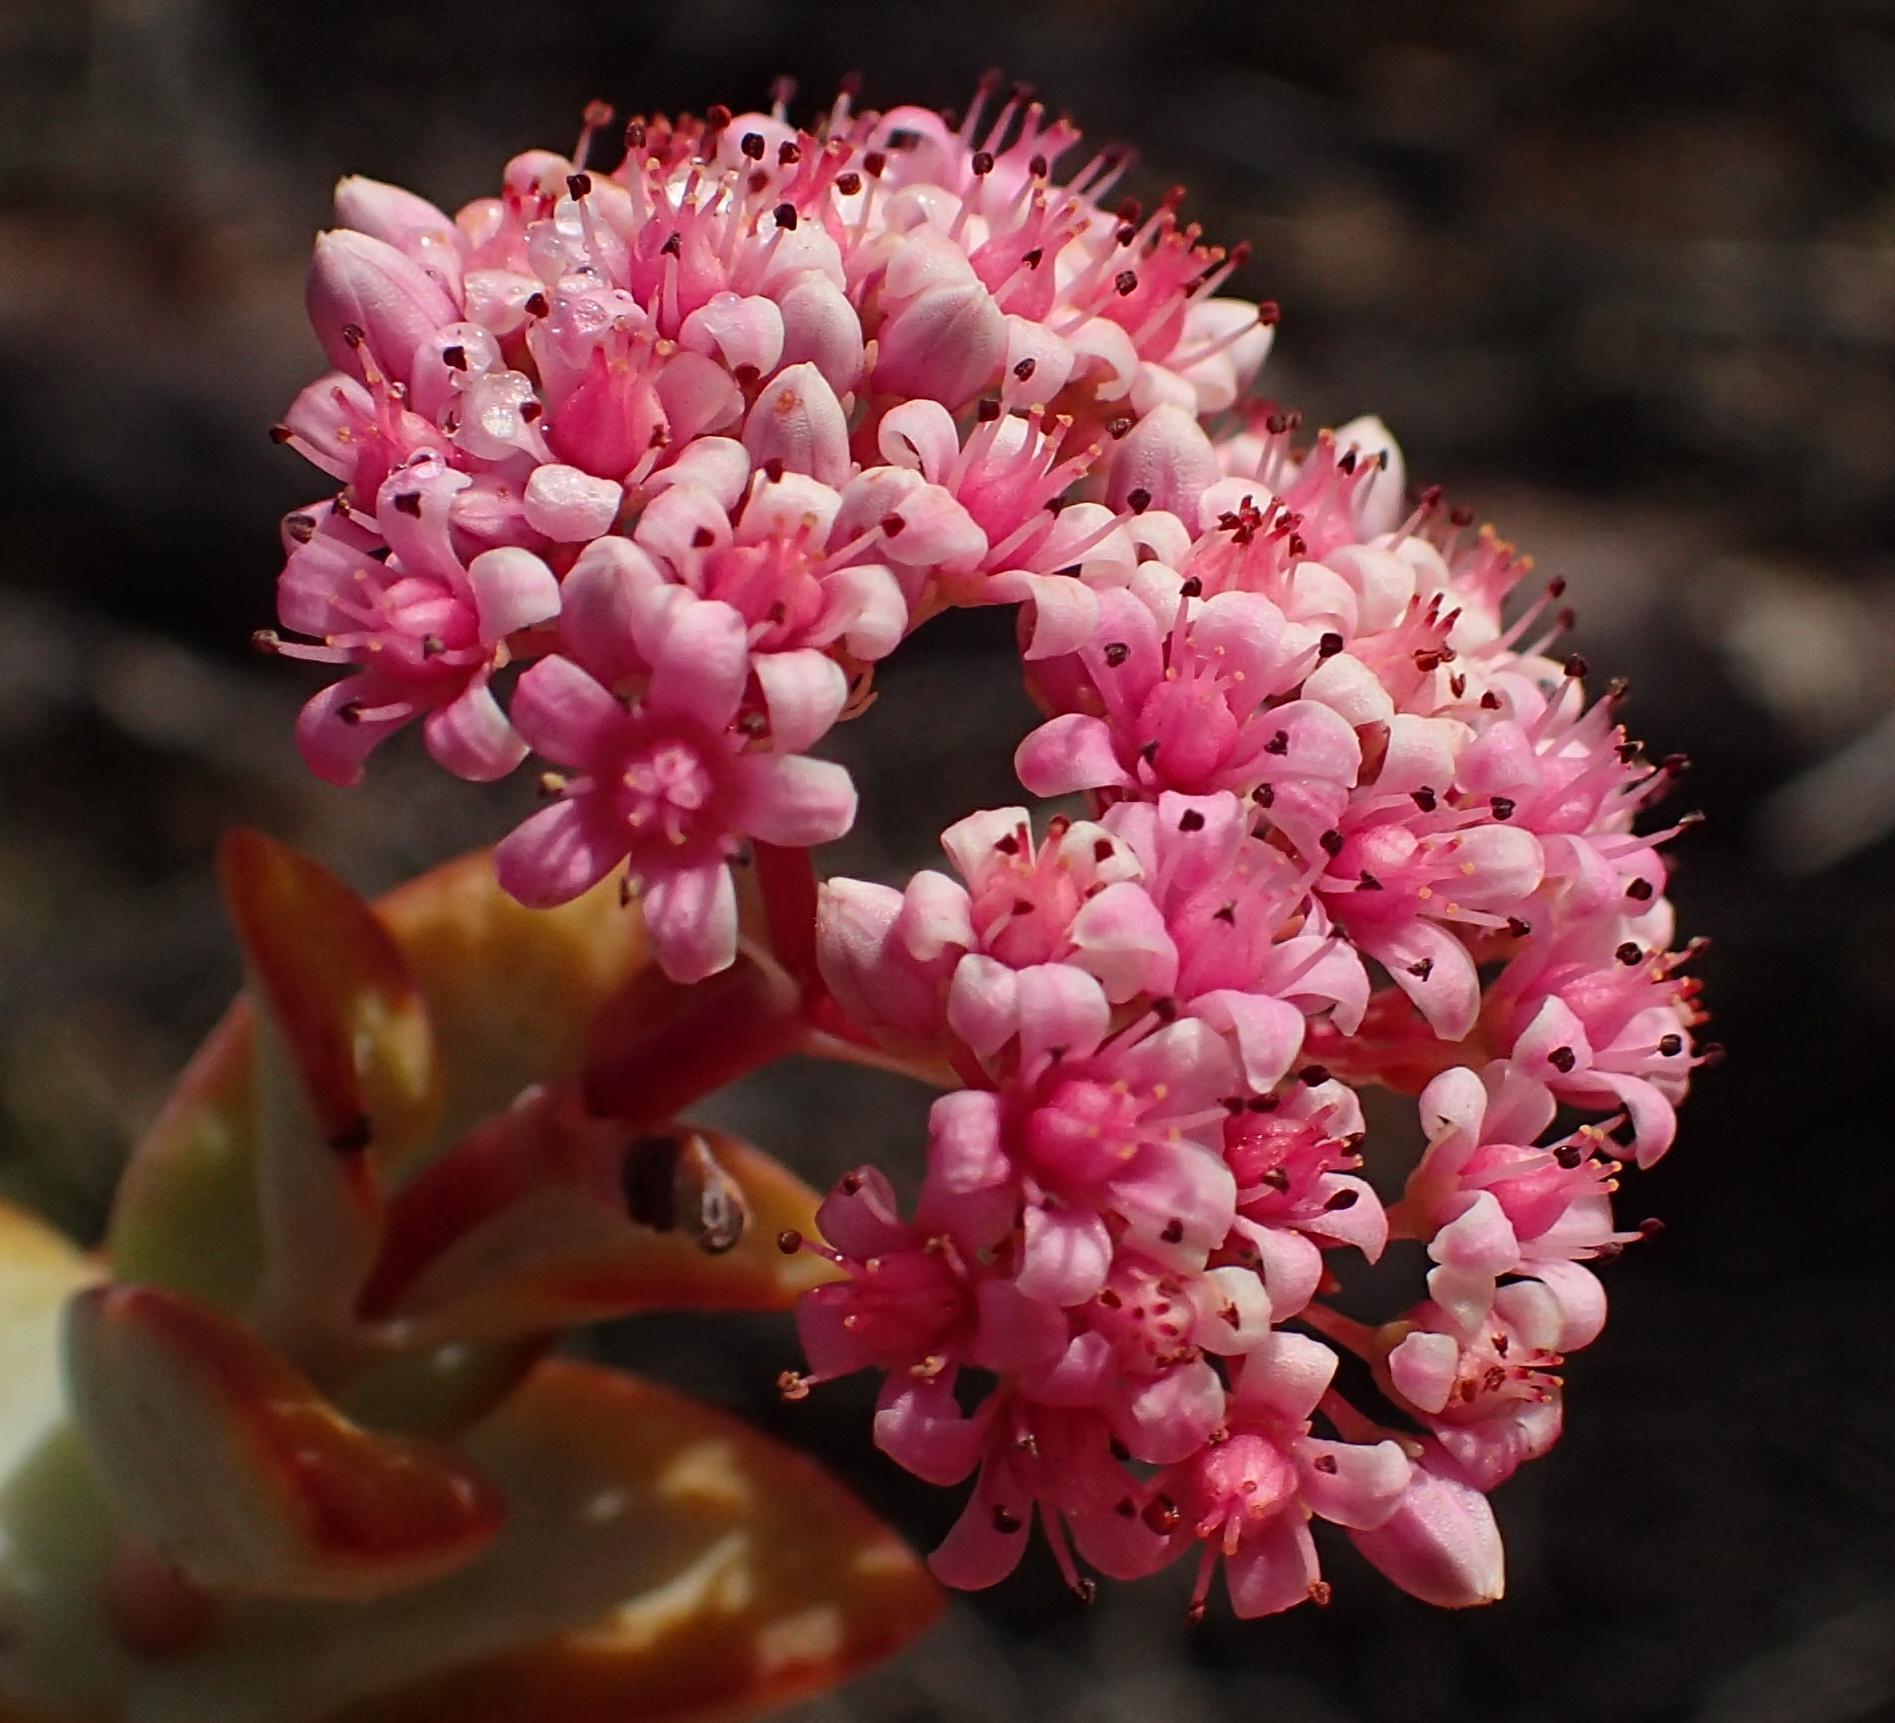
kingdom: Plantae
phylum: Tracheophyta
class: Magnoliopsida
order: Saxifragales
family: Crassulaceae
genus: Crassula
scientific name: Crassula rupestris
